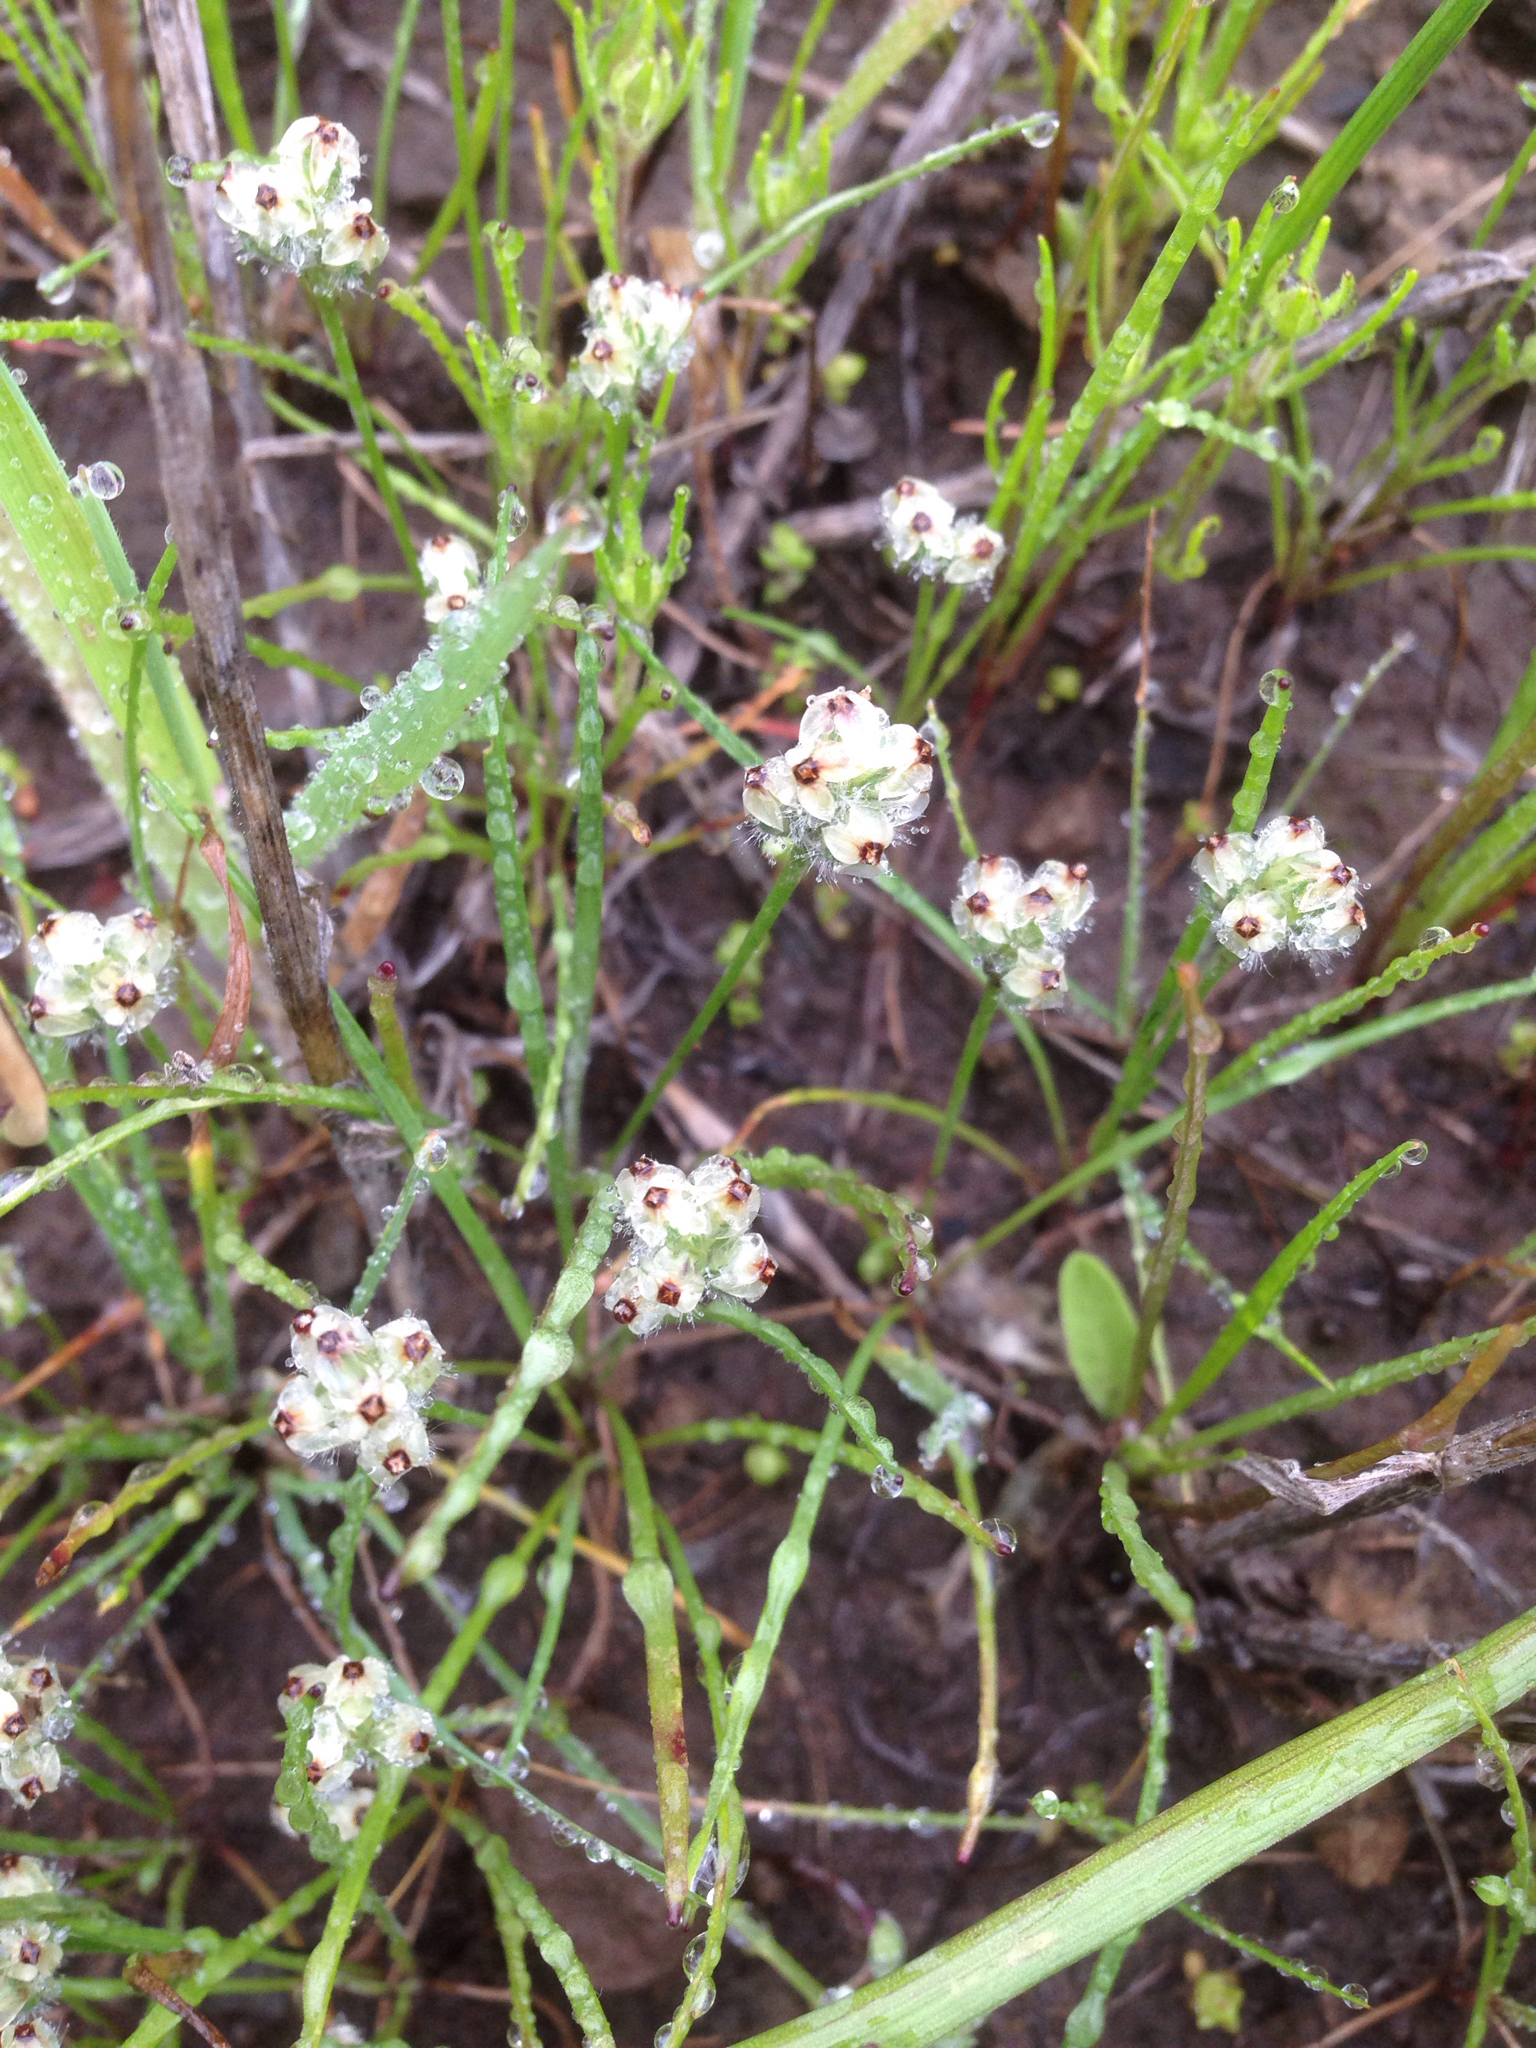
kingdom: Plantae
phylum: Tracheophyta
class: Magnoliopsida
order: Lamiales
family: Plantaginaceae
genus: Plantago
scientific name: Plantago erecta
